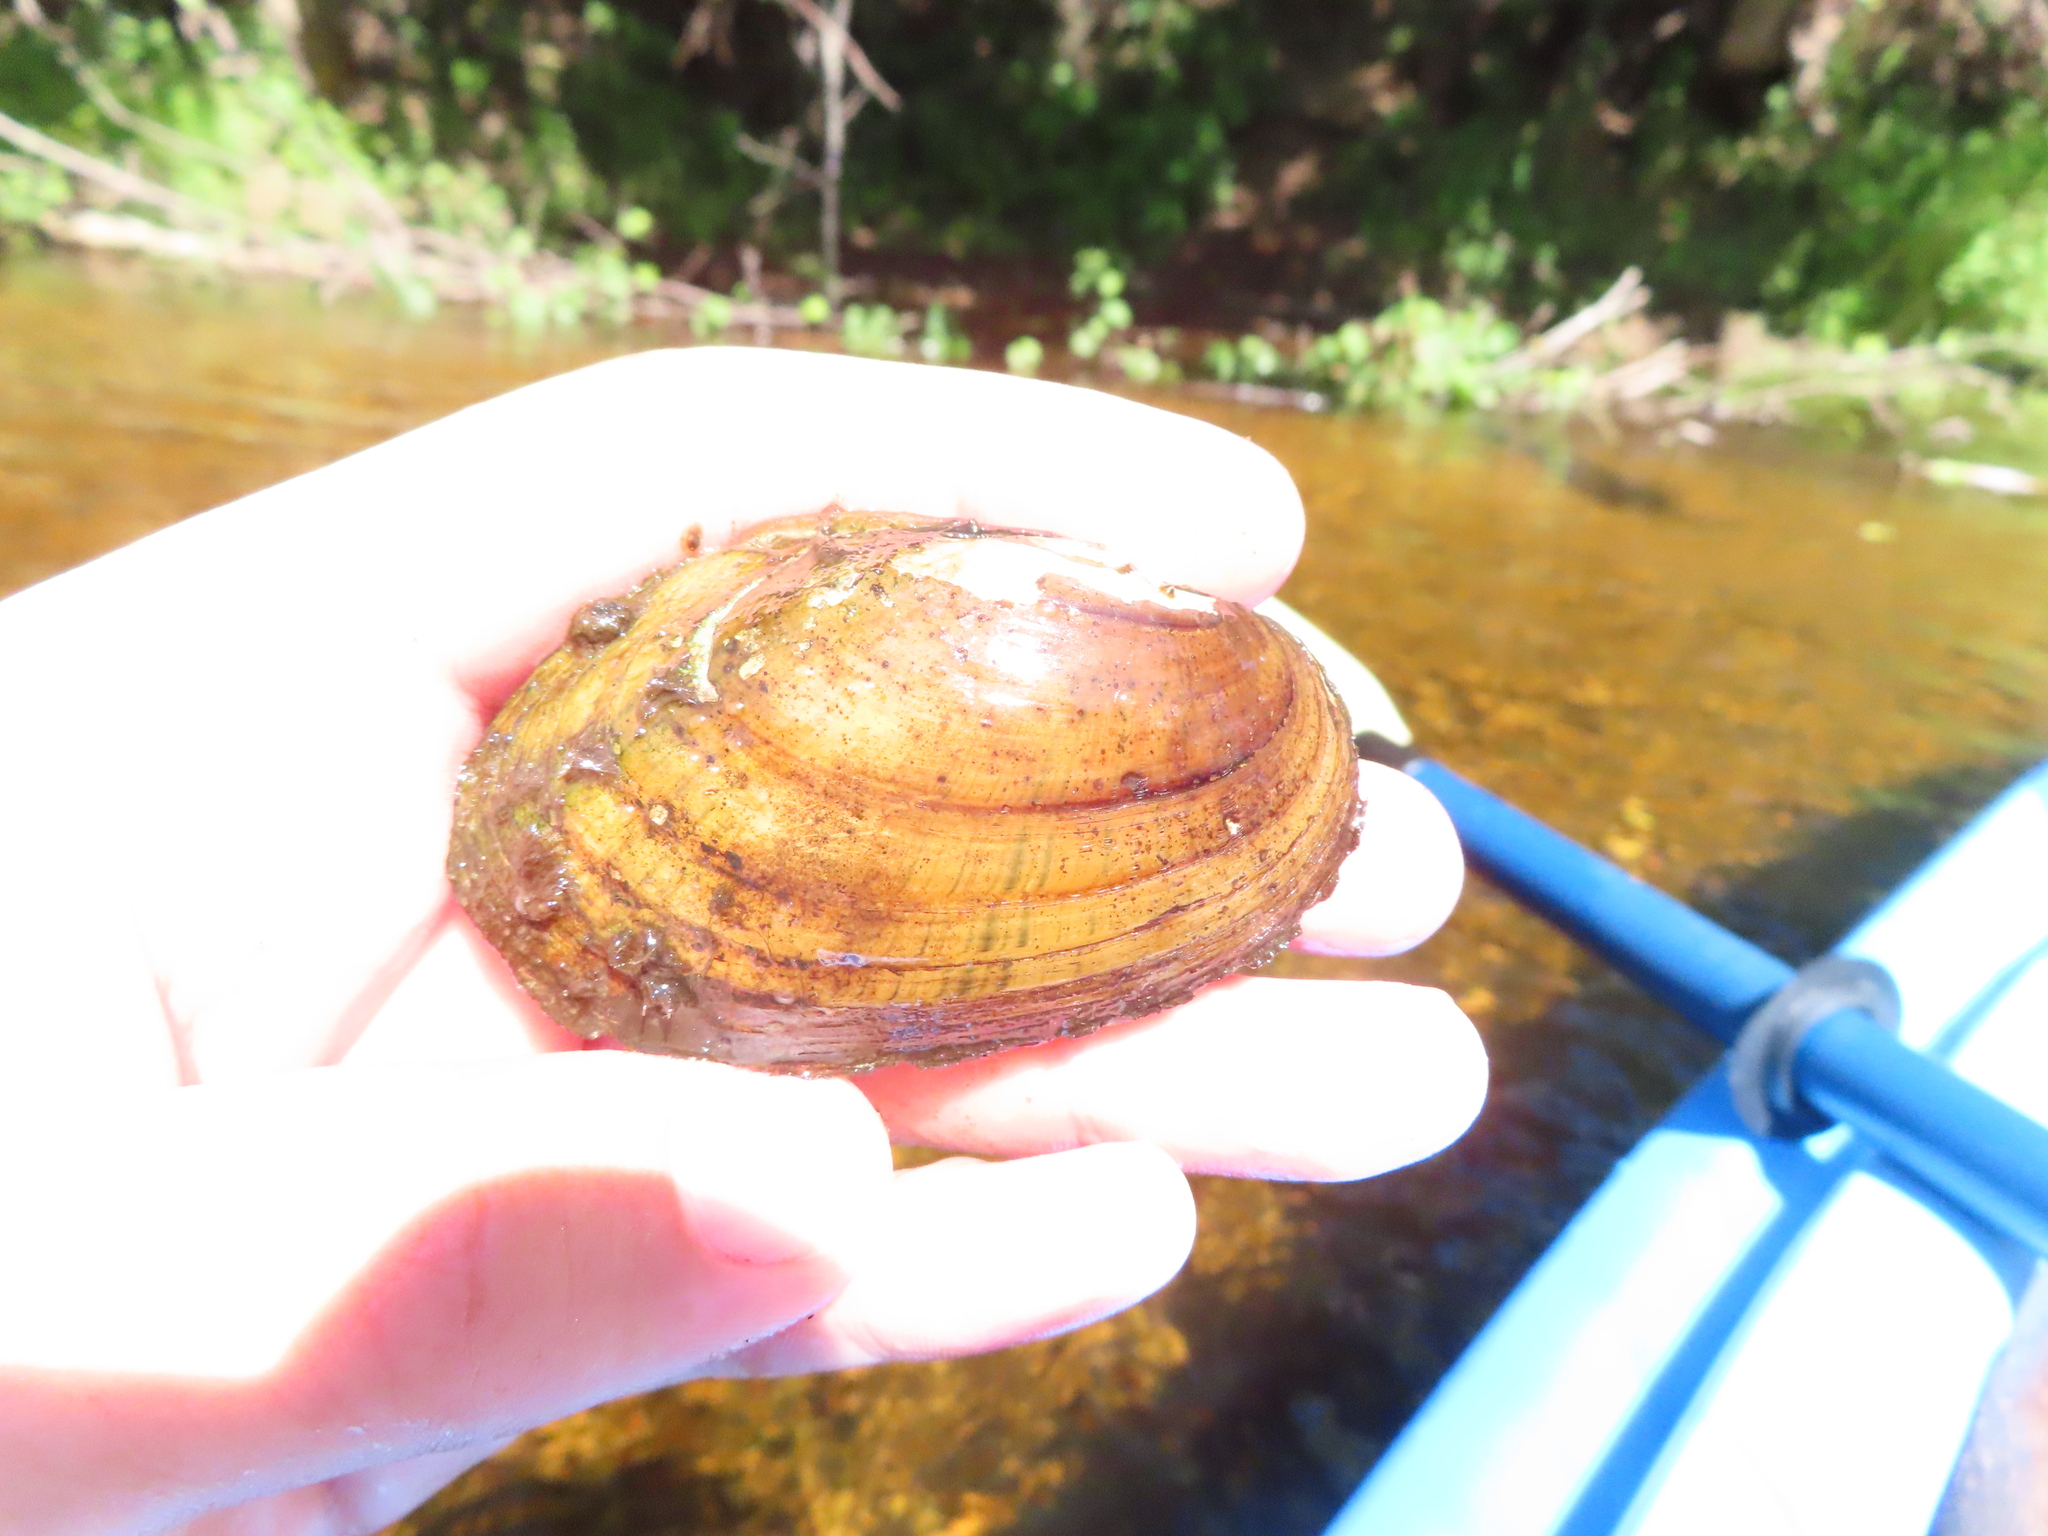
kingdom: Animalia
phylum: Mollusca
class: Bivalvia
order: Unionida
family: Unionidae
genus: Lampsilis
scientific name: Lampsilis siliquoidea
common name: Fatmucket
